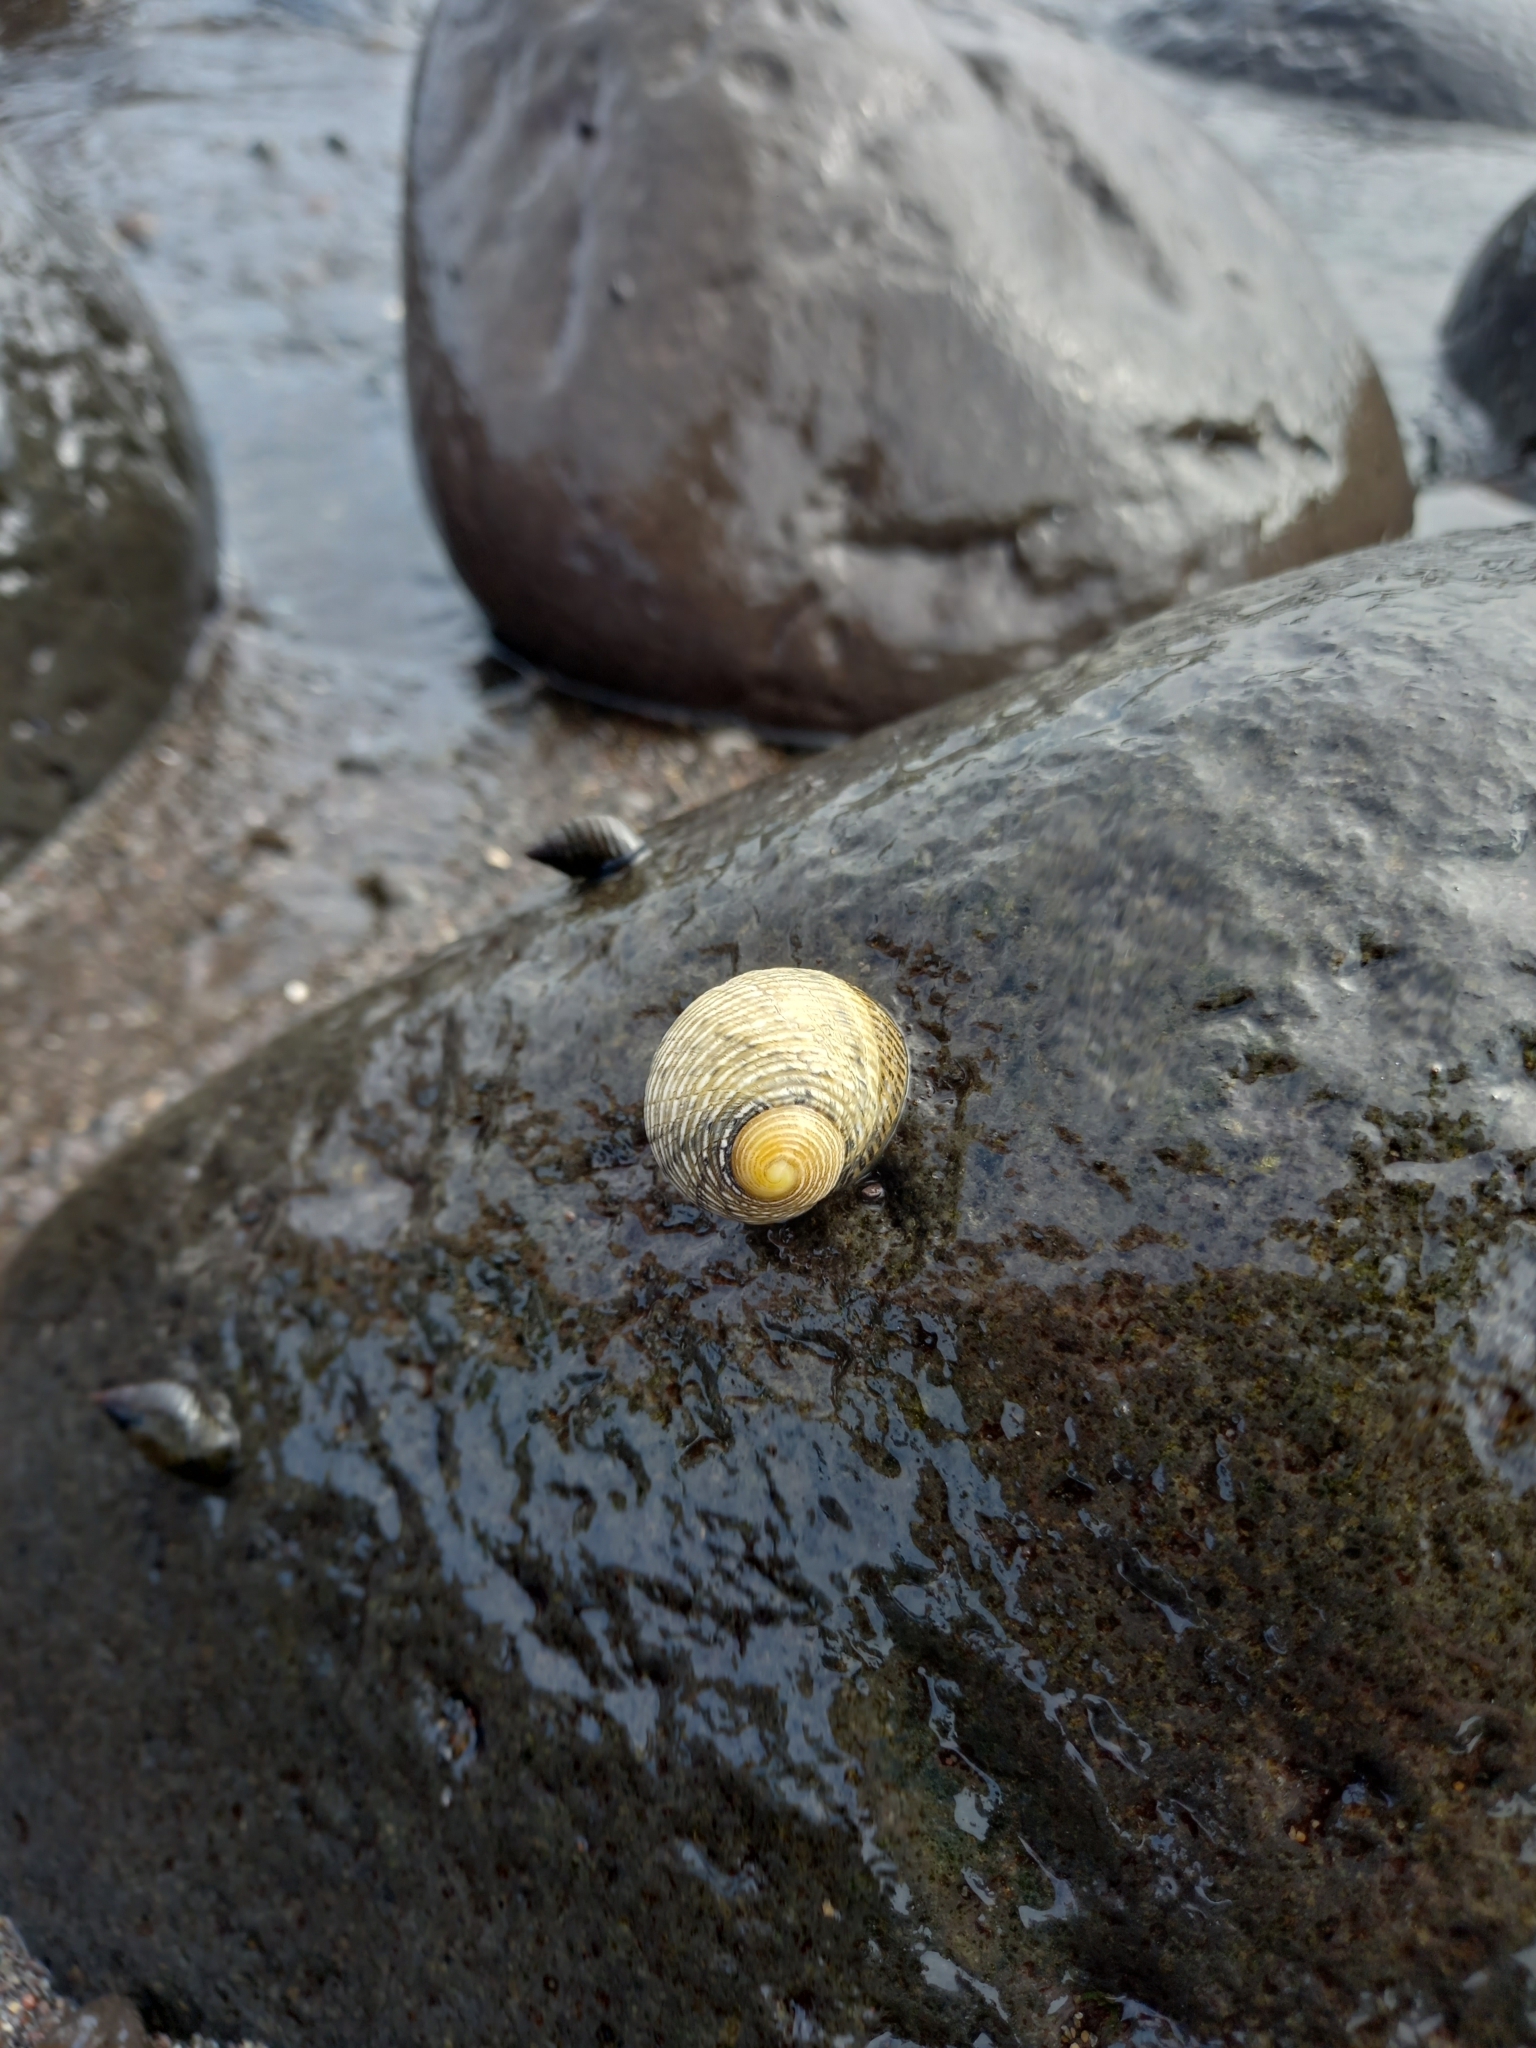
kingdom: Animalia
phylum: Mollusca
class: Gastropoda
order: Cycloneritida
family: Neritidae
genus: Nerita
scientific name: Nerita scabricosta
